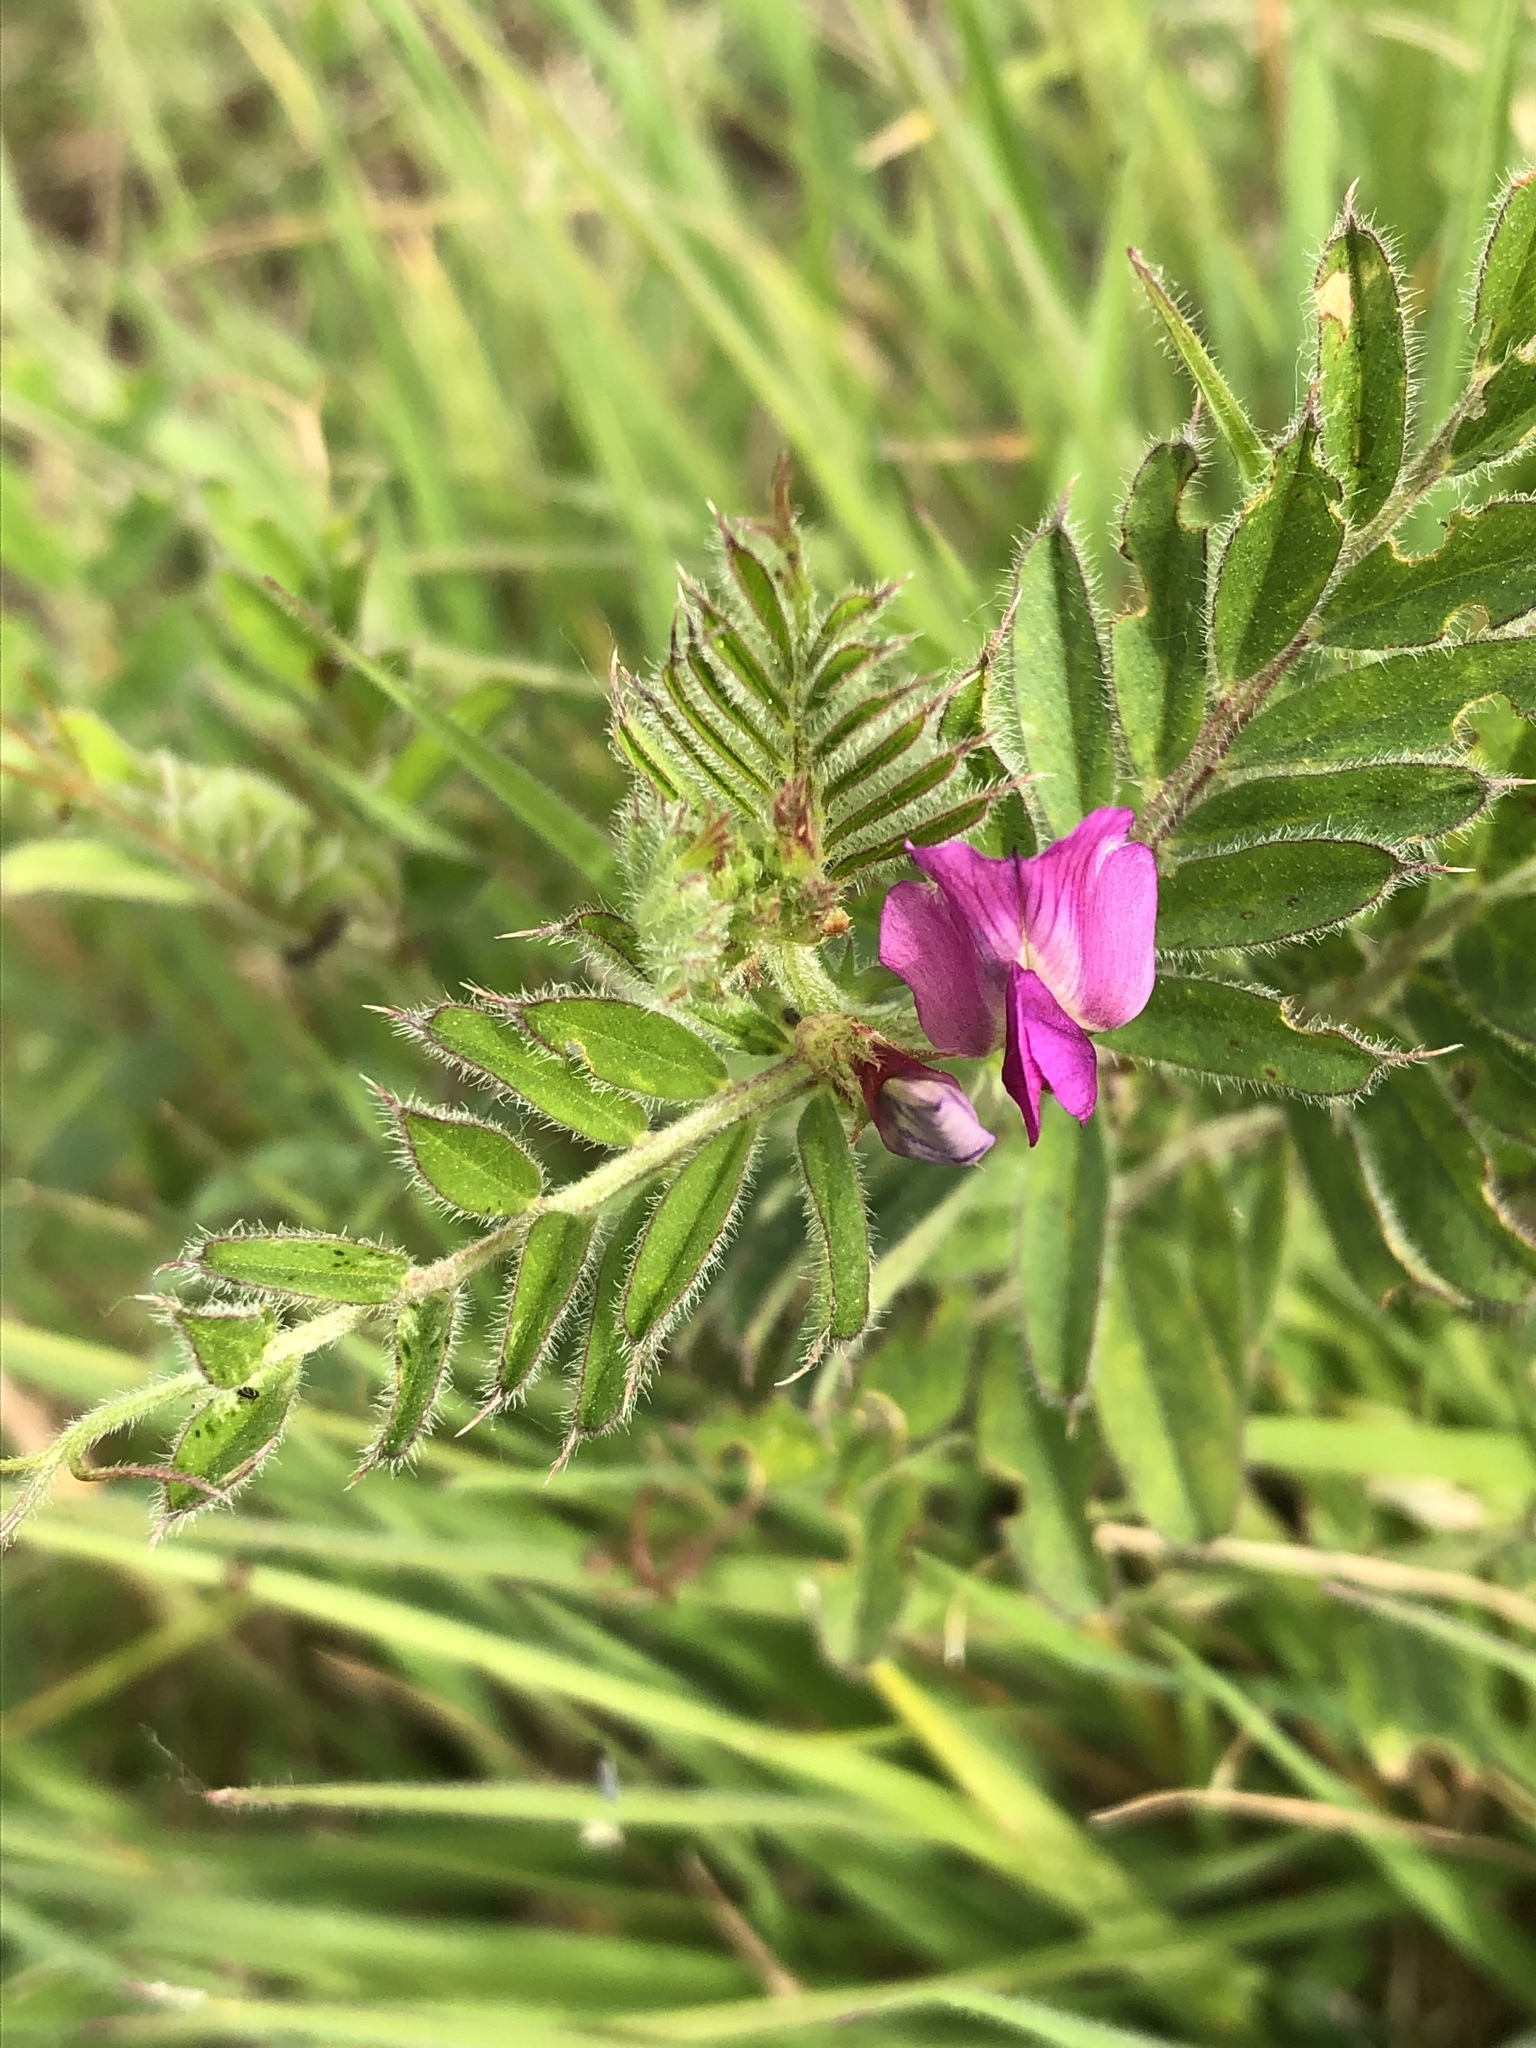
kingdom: Plantae
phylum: Tracheophyta
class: Magnoliopsida
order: Fabales
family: Fabaceae
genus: Vicia
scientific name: Vicia sativa
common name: Garden vetch
